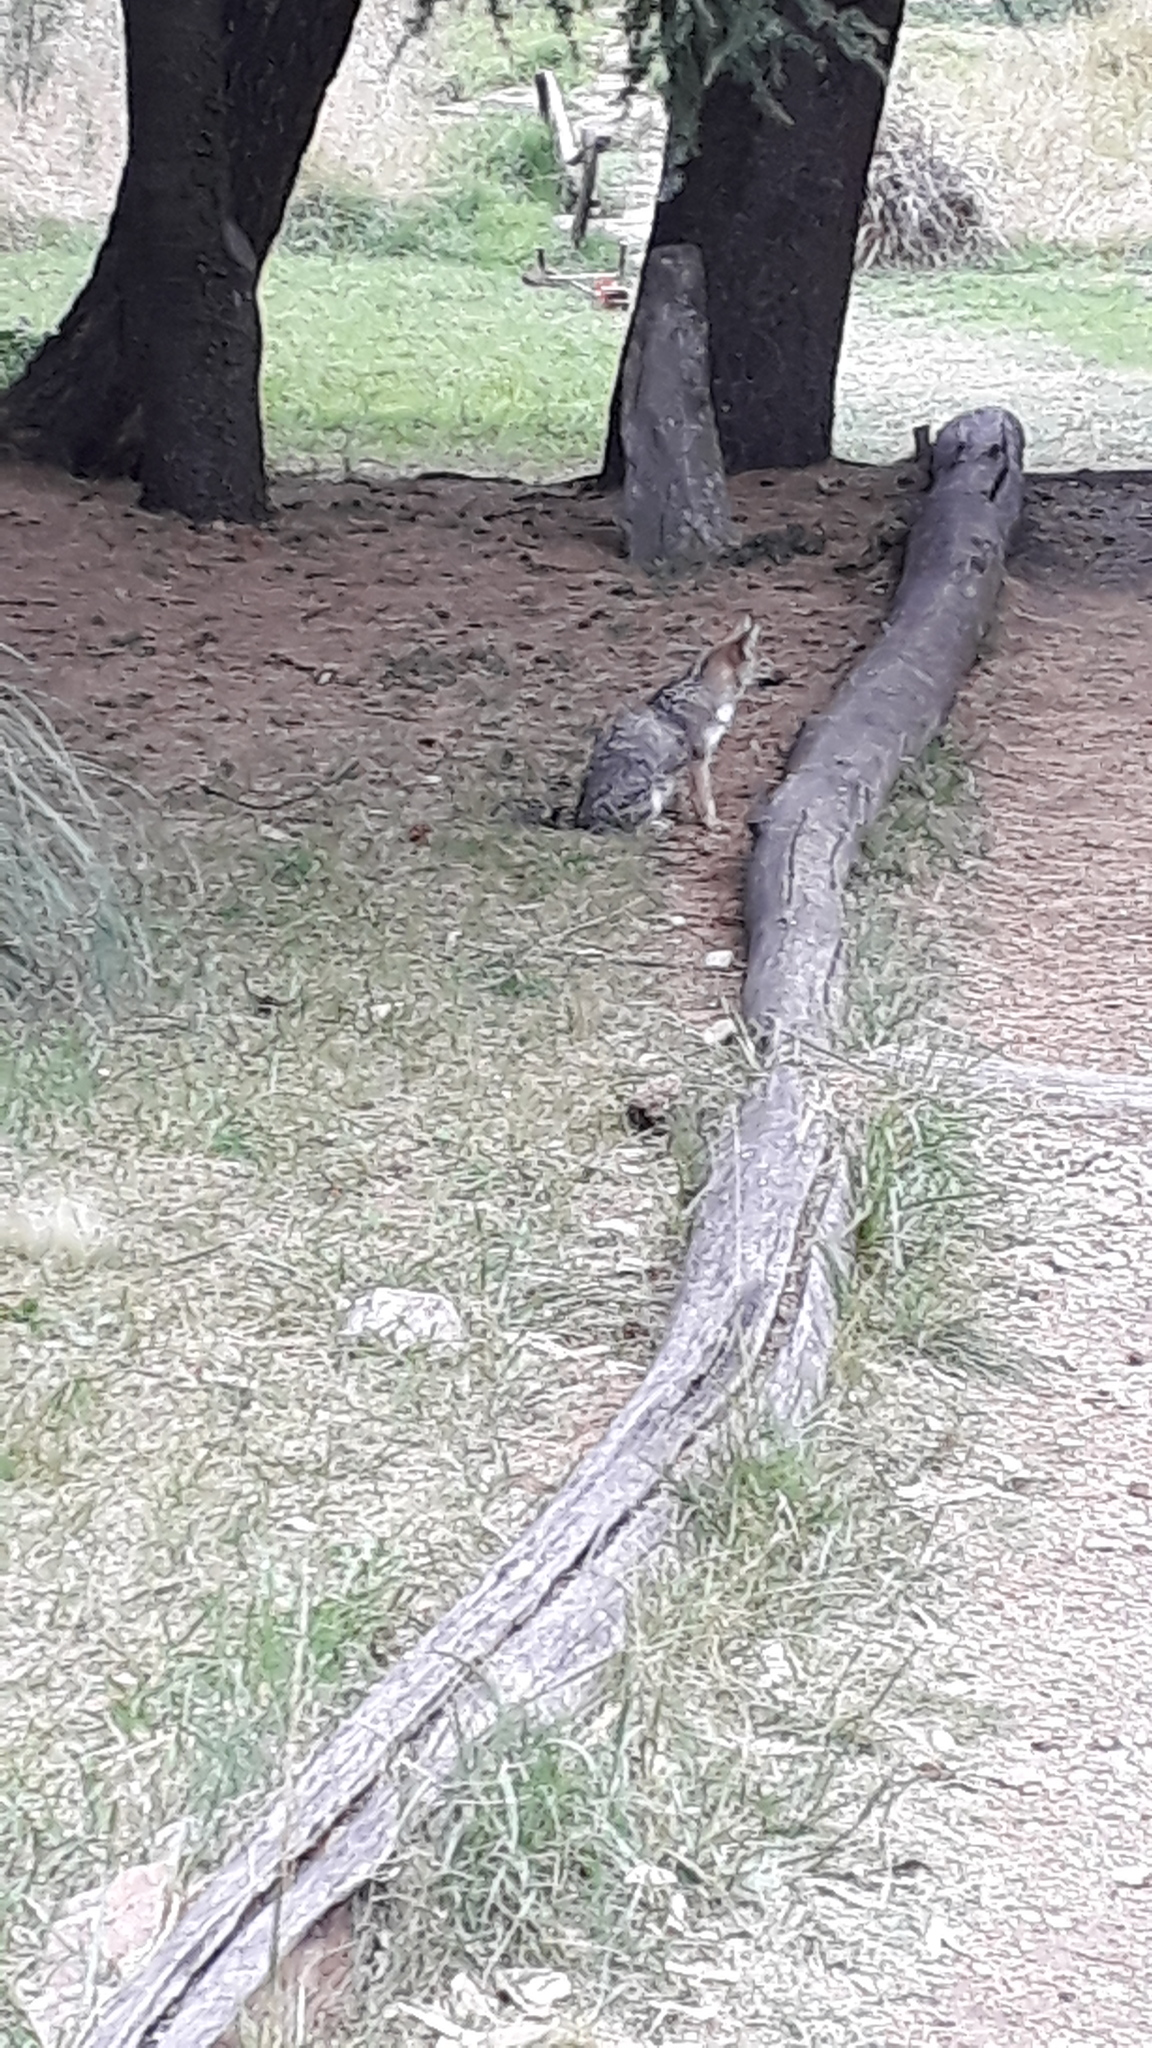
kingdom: Animalia
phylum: Chordata
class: Mammalia
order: Carnivora
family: Canidae
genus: Lycalopex
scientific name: Lycalopex gymnocercus
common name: Pampas fox
